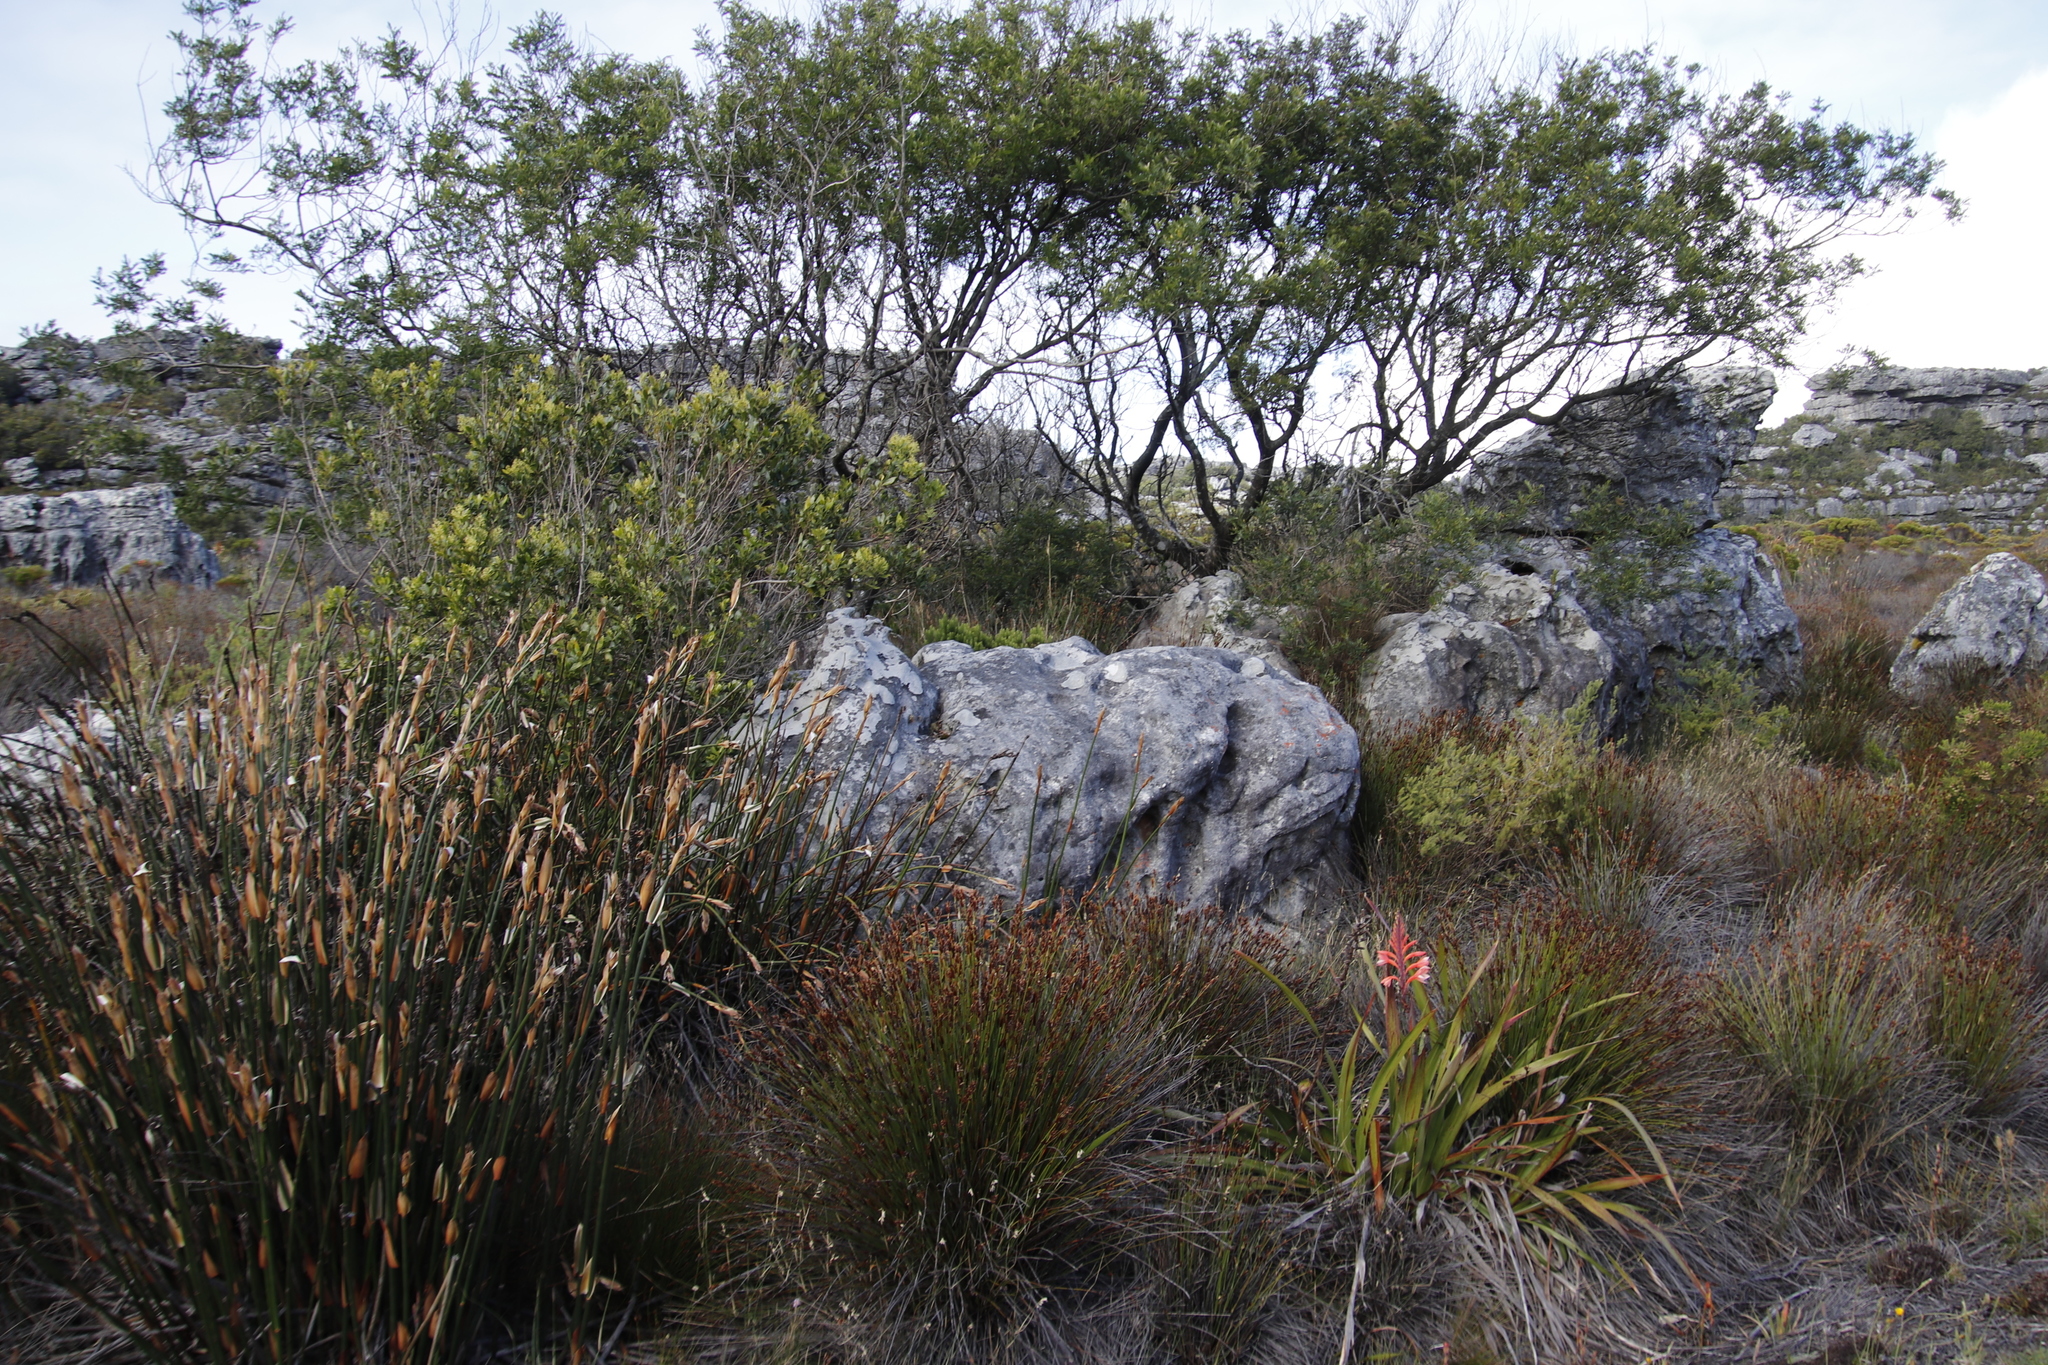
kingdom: Plantae
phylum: Tracheophyta
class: Magnoliopsida
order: Fabales
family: Fabaceae
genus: Virgilia
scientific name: Virgilia oroboides
